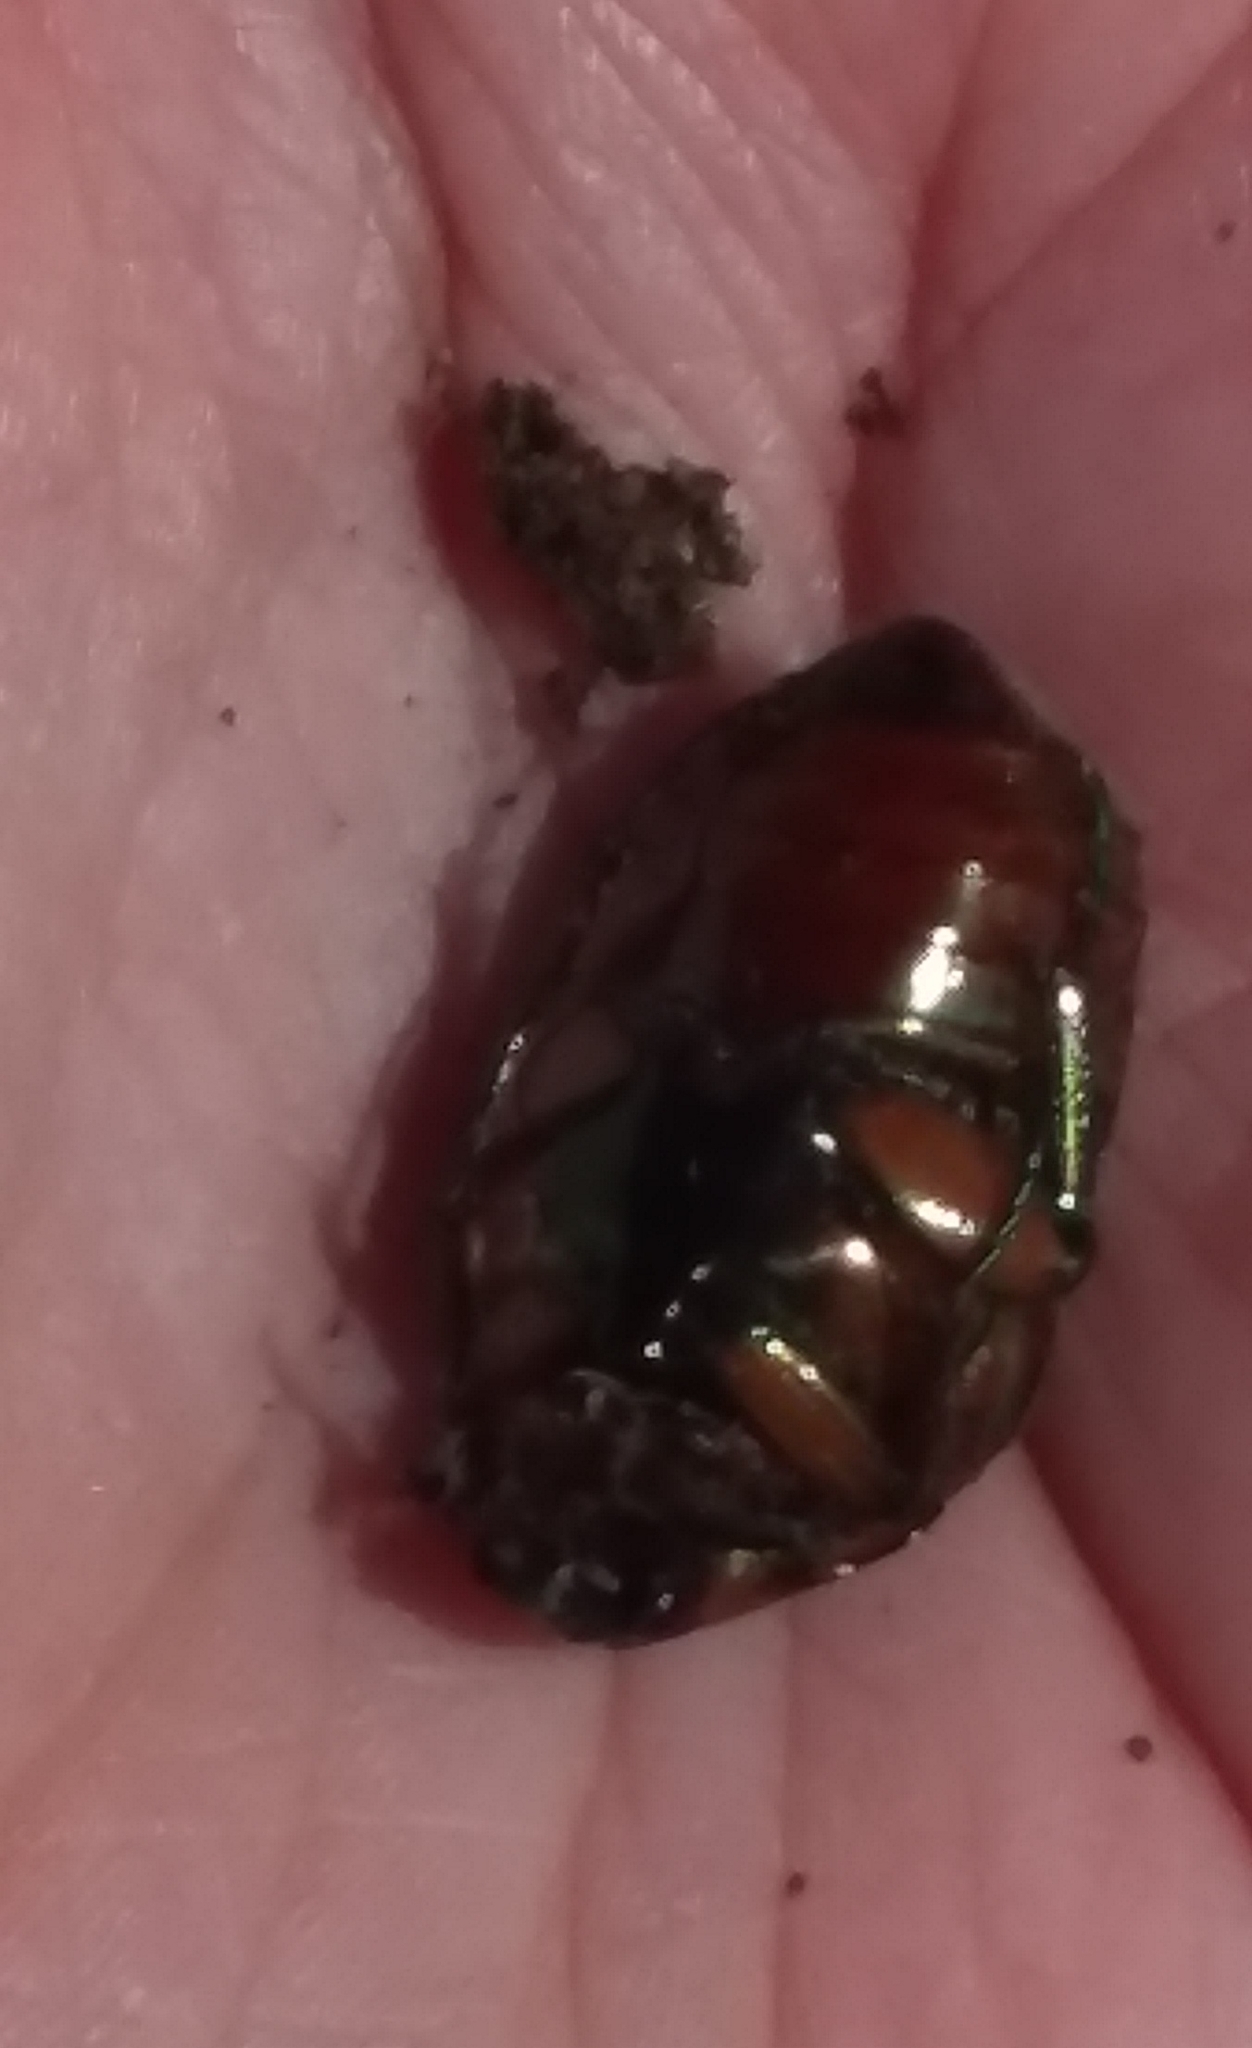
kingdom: Animalia
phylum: Arthropoda
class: Insecta
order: Coleoptera
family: Scarabaeidae
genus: Cotinis
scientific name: Cotinis nitida
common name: Common green june beetle
